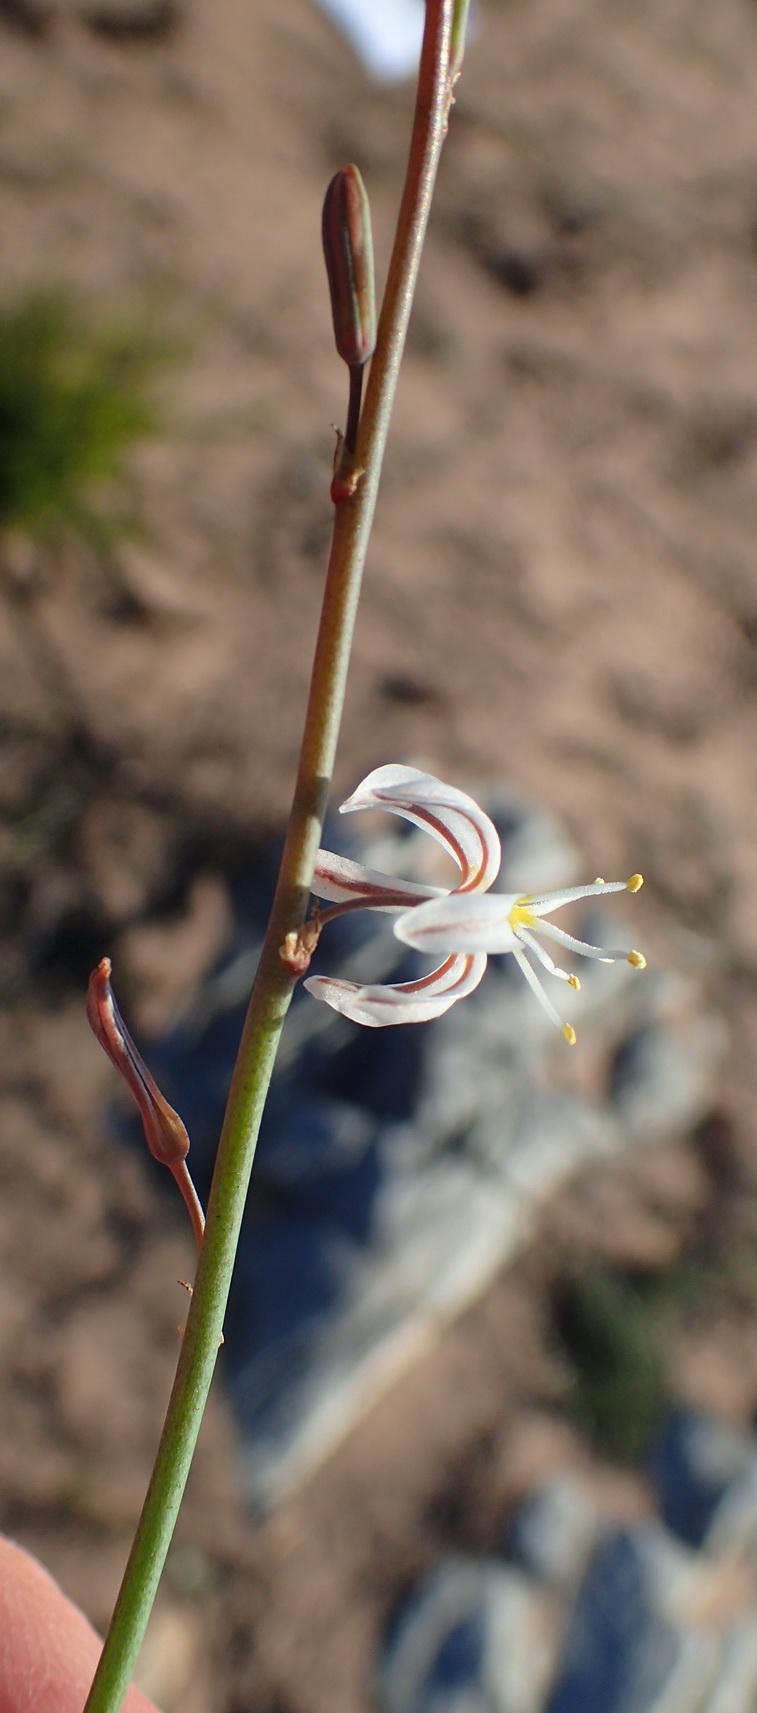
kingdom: Plantae
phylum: Tracheophyta
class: Liliopsida
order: Asparagales
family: Asphodelaceae
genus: Trachyandra
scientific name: Trachyandra divaricata
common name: Dune onionweed
